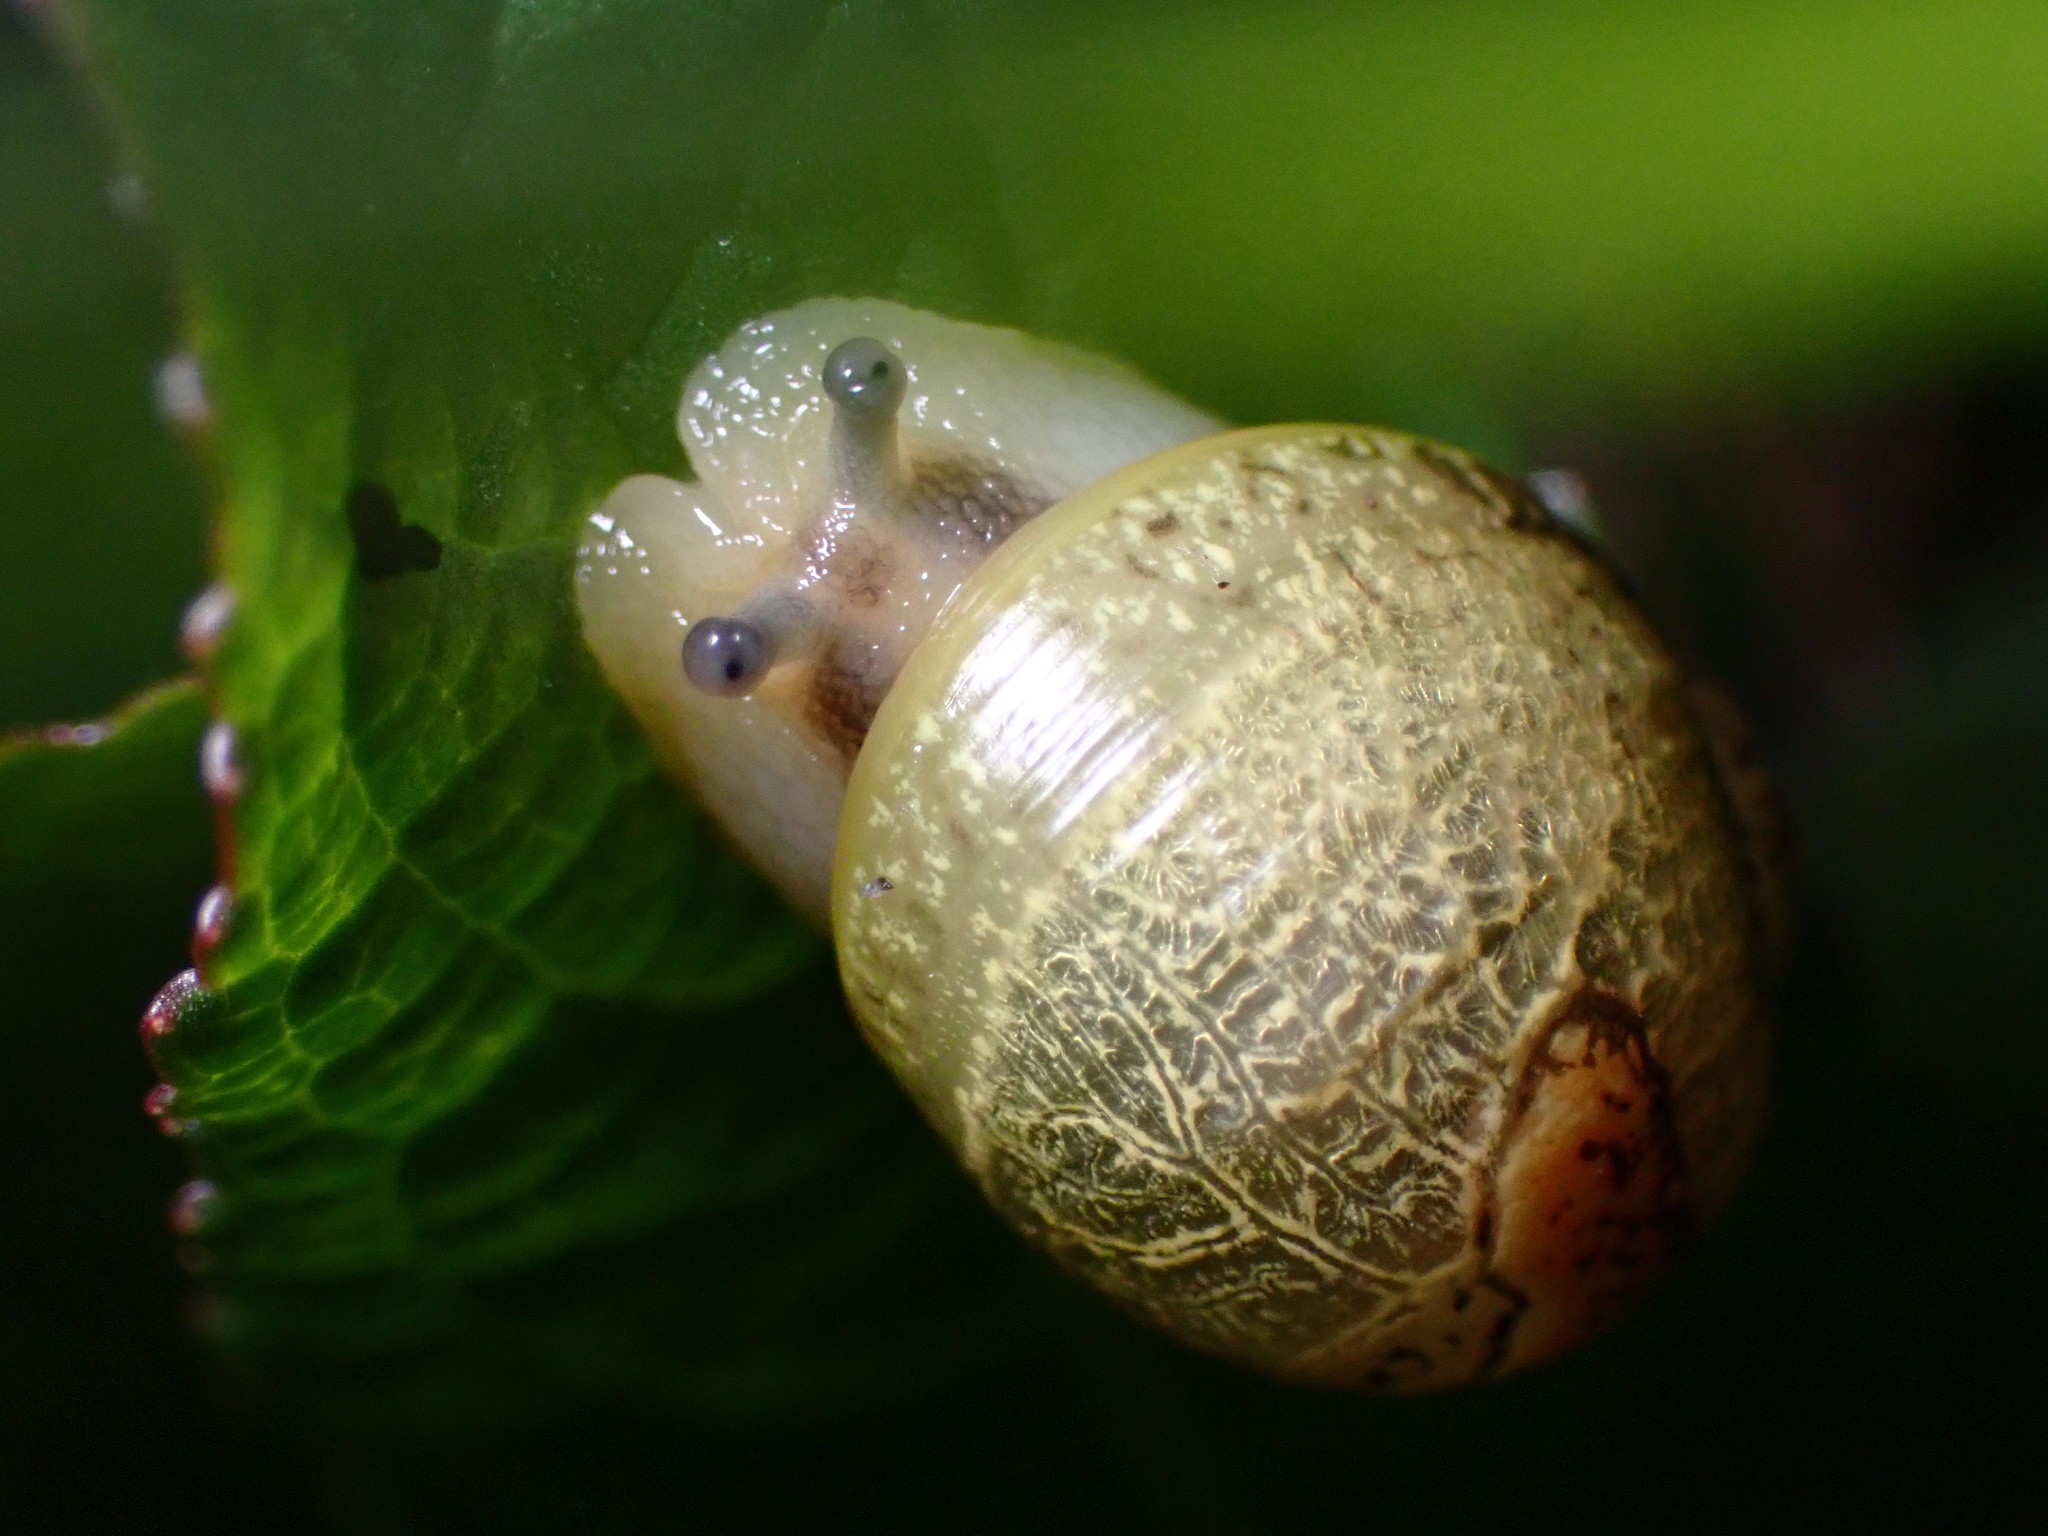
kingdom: Animalia
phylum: Mollusca
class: Gastropoda
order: Stylommatophora
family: Helicidae
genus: Cantareus
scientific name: Cantareus apertus
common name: Green gardensnail
